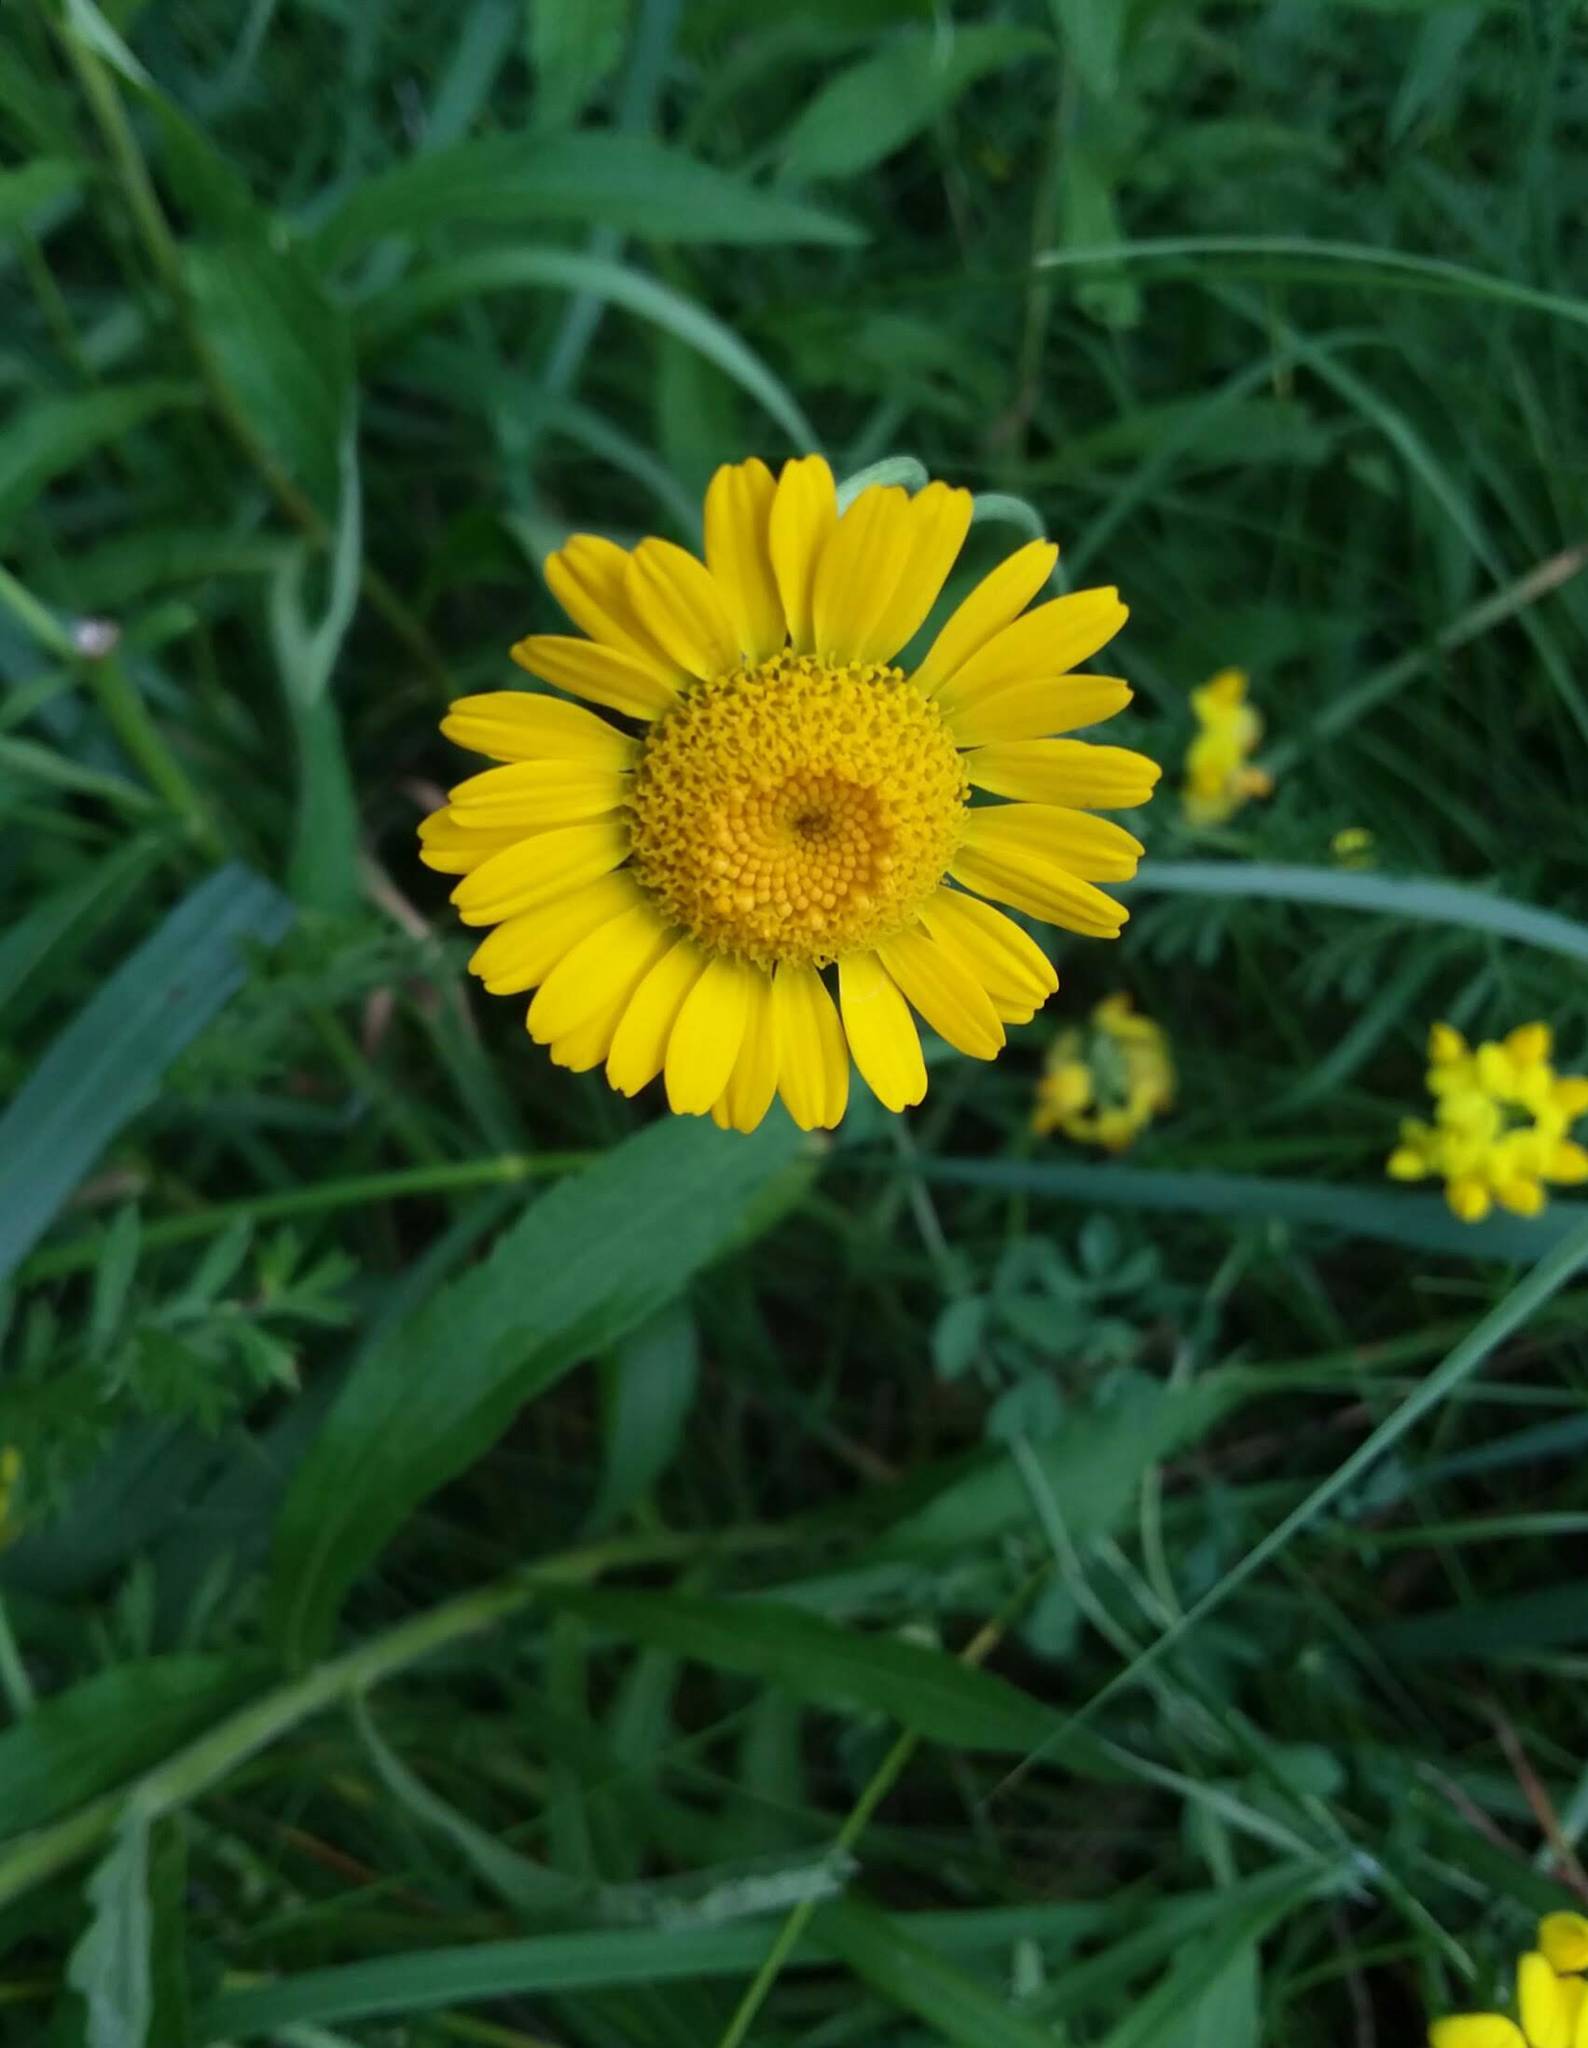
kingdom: Plantae
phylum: Tracheophyta
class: Magnoliopsida
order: Asterales
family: Asteraceae
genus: Cota
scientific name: Cota tinctoria
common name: Golden chamomile
